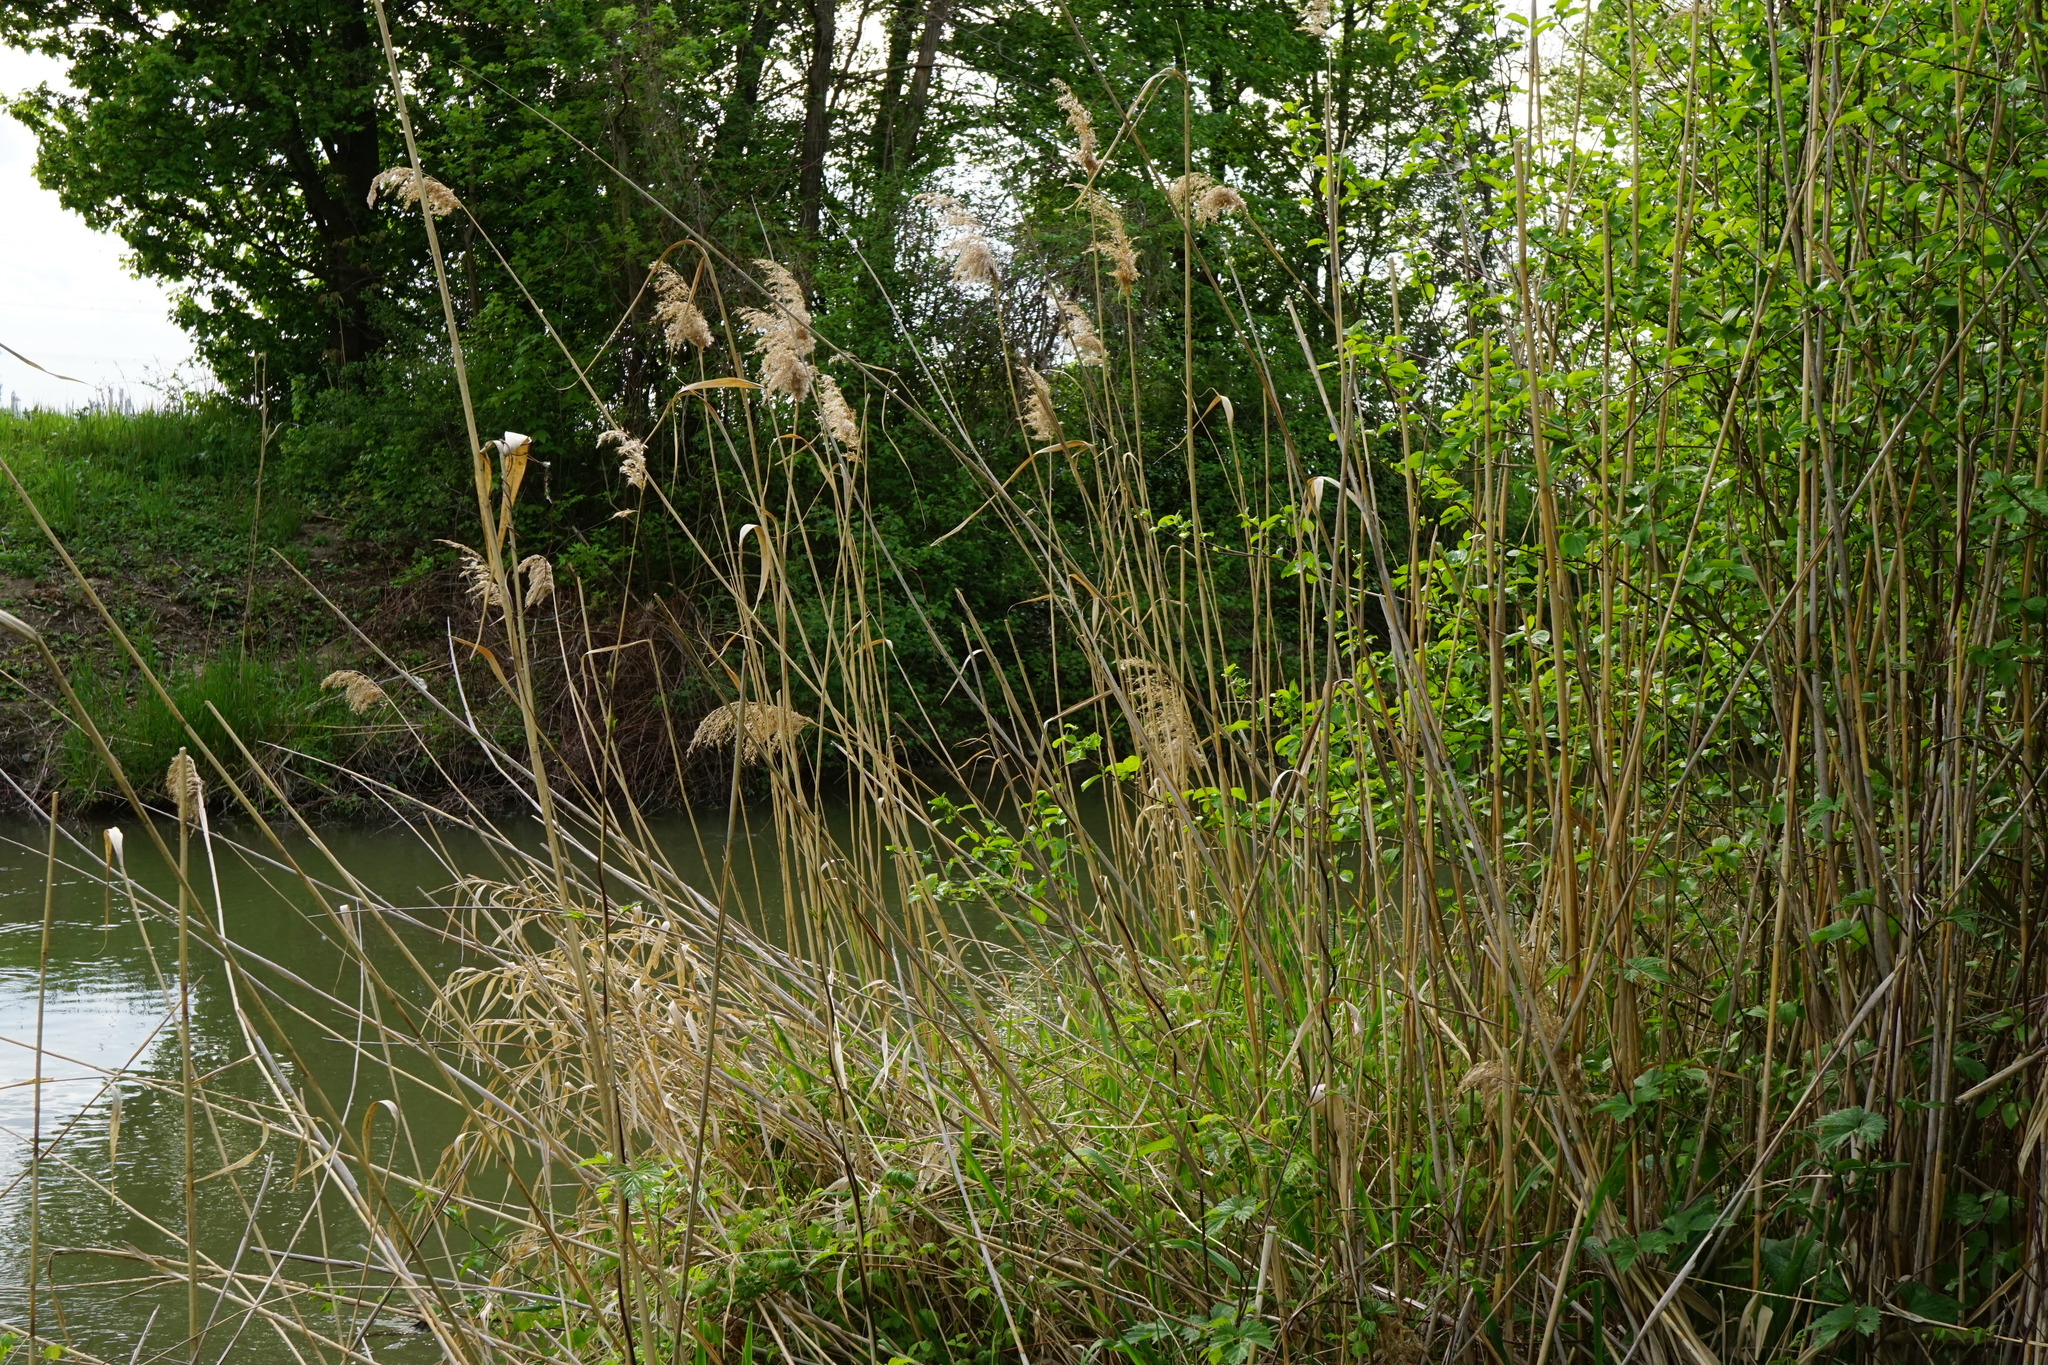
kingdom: Plantae
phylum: Tracheophyta
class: Liliopsida
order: Poales
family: Poaceae
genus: Phragmites
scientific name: Phragmites australis
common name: Common reed
